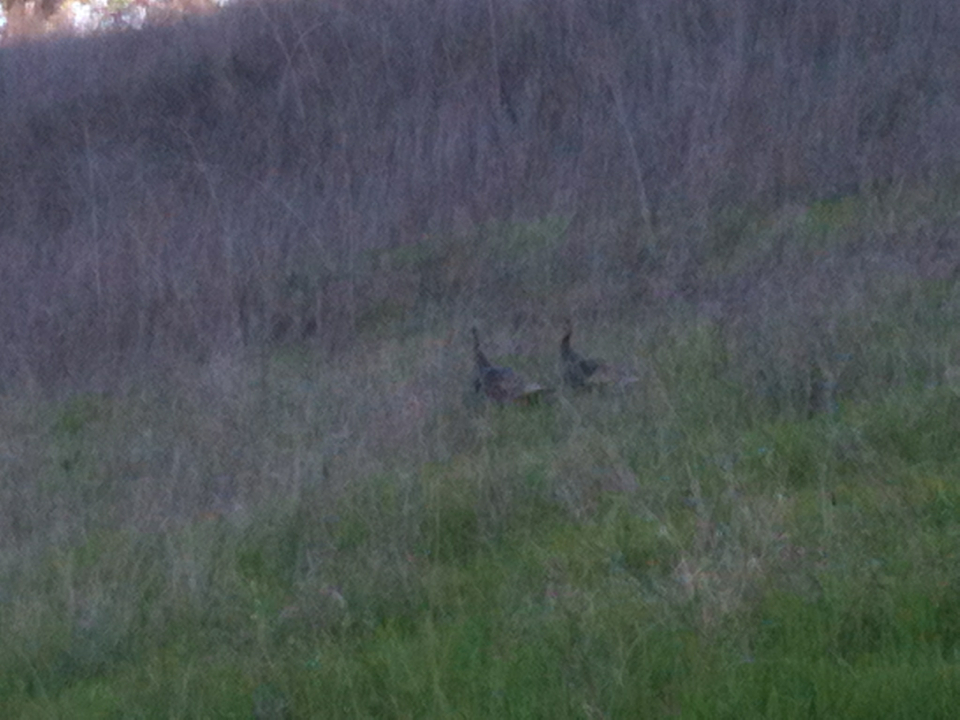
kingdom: Animalia
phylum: Chordata
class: Aves
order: Galliformes
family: Phasianidae
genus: Meleagris
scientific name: Meleagris gallopavo
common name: Wild turkey
